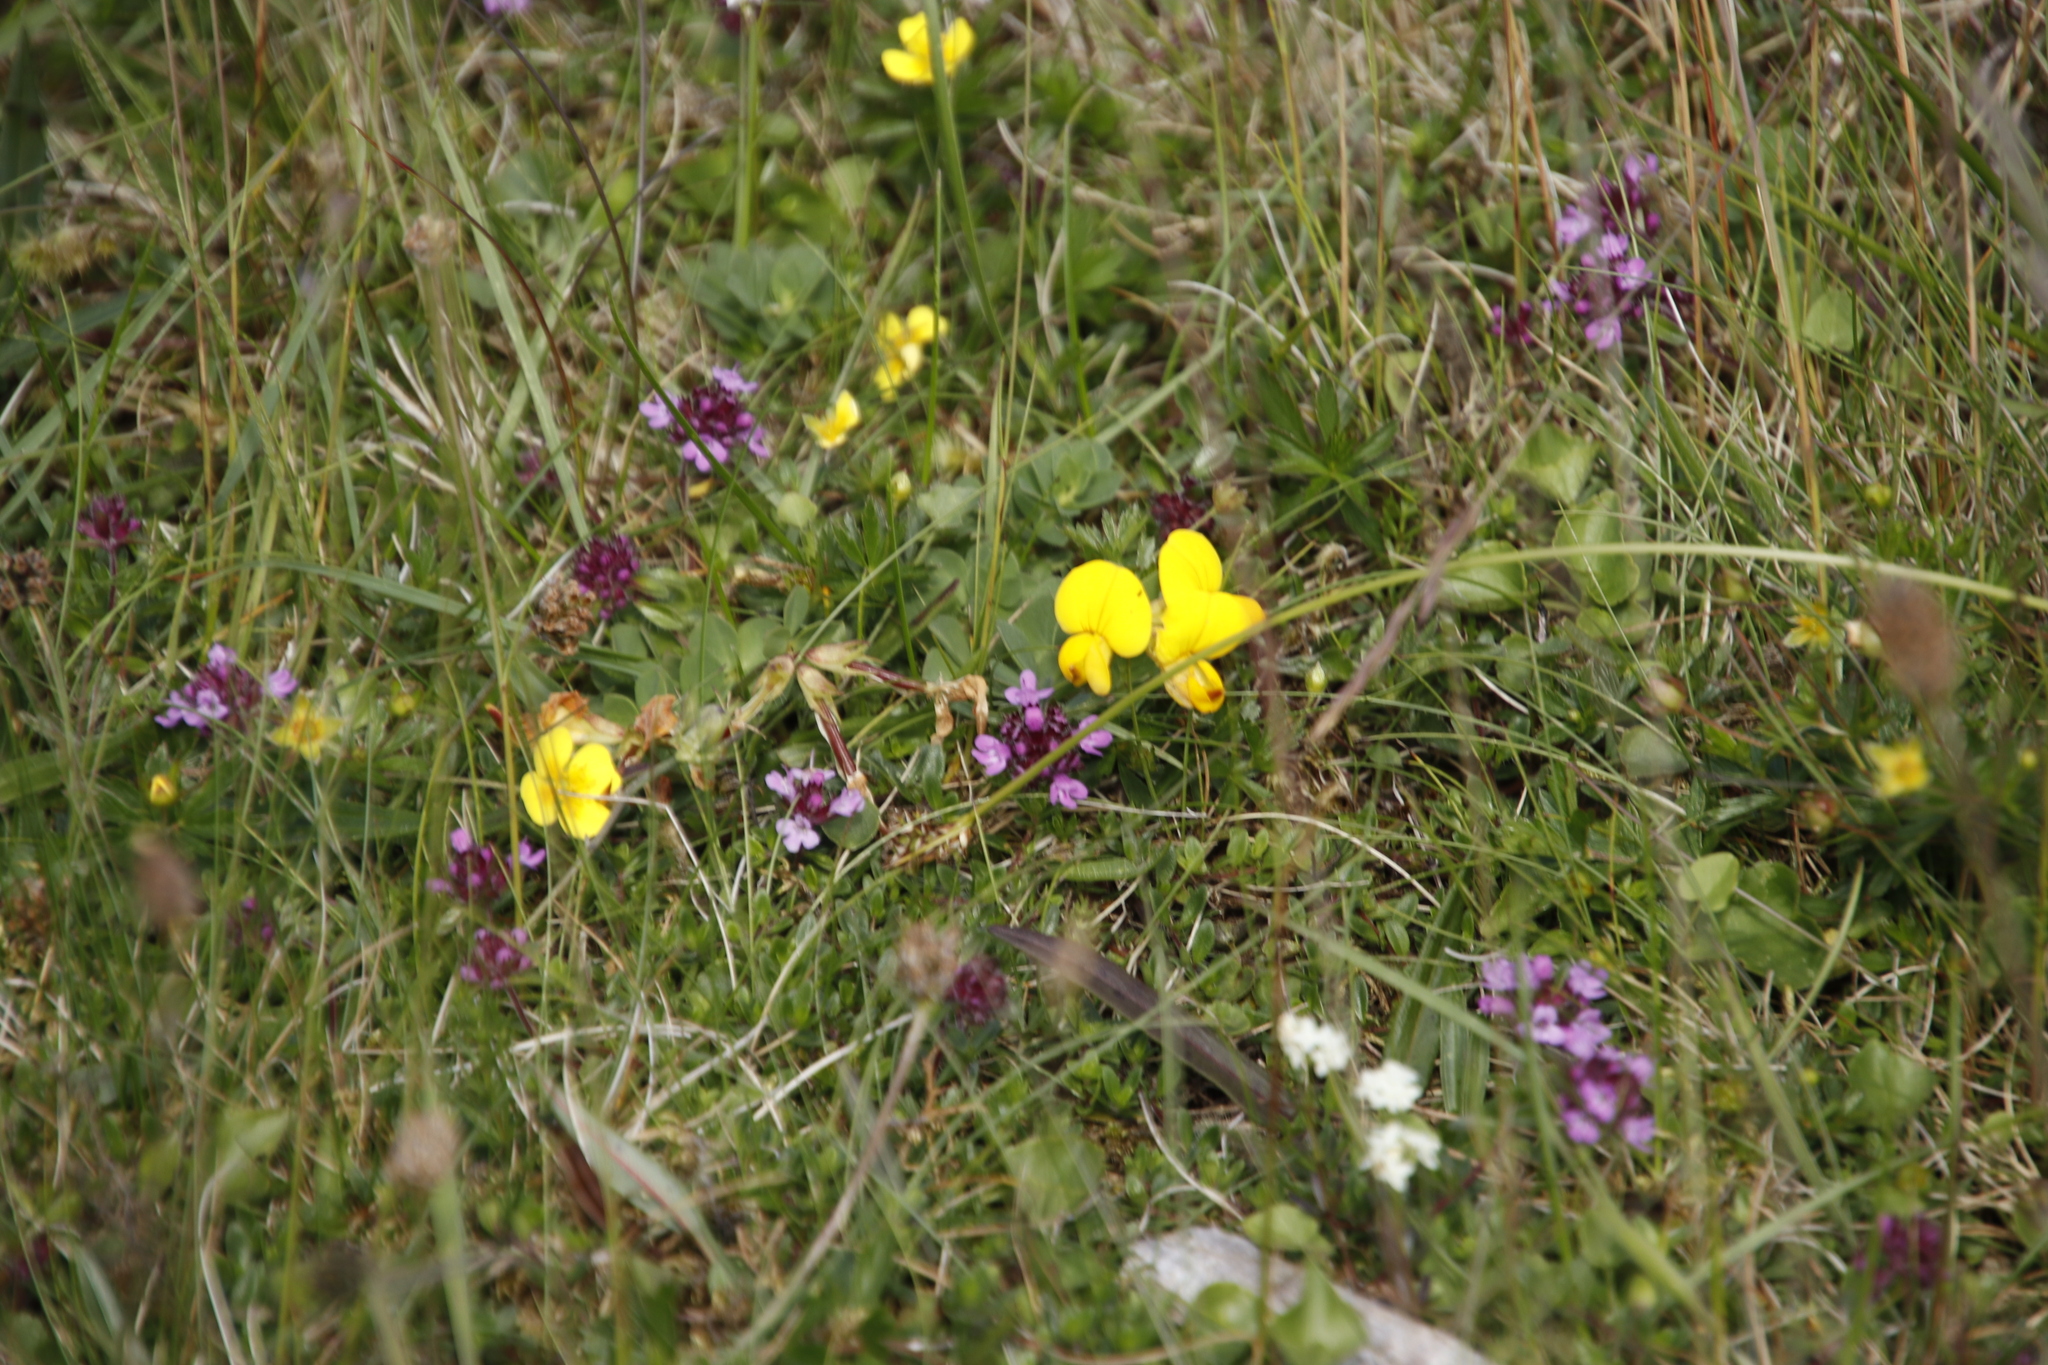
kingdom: Plantae
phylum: Tracheophyta
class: Magnoliopsida
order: Fabales
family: Fabaceae
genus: Lotus
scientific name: Lotus corniculatus
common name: Common bird's-foot-trefoil
